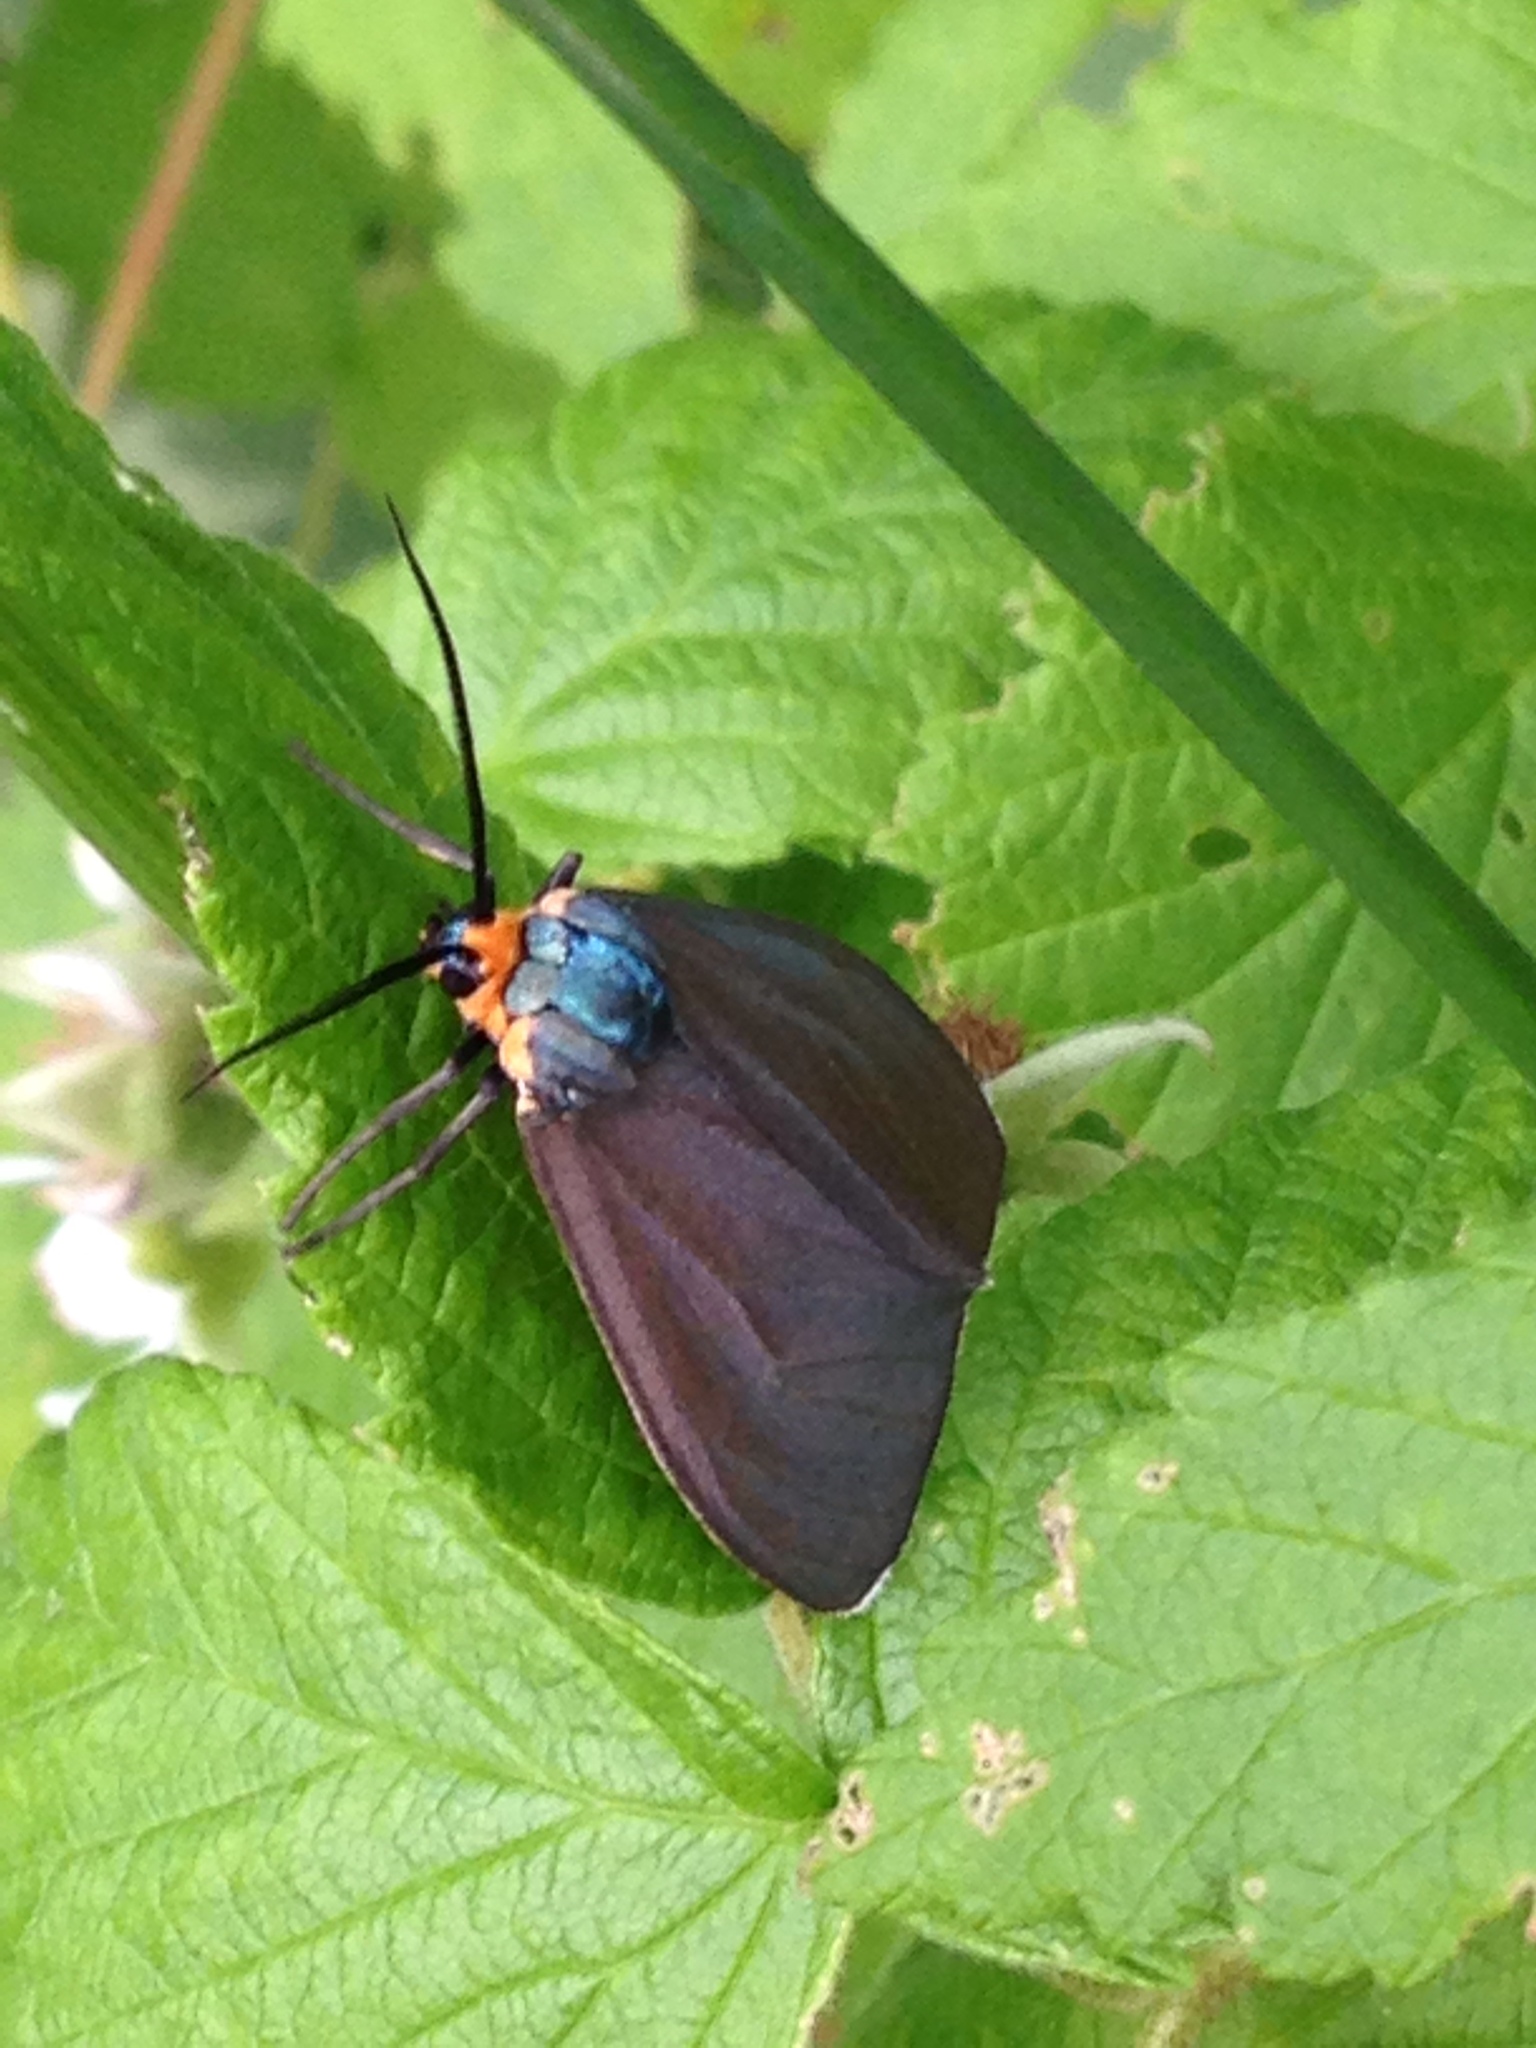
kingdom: Animalia
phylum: Arthropoda
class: Insecta
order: Lepidoptera
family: Erebidae
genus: Ctenucha
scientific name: Ctenucha virginica
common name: Virginia ctenucha moth
